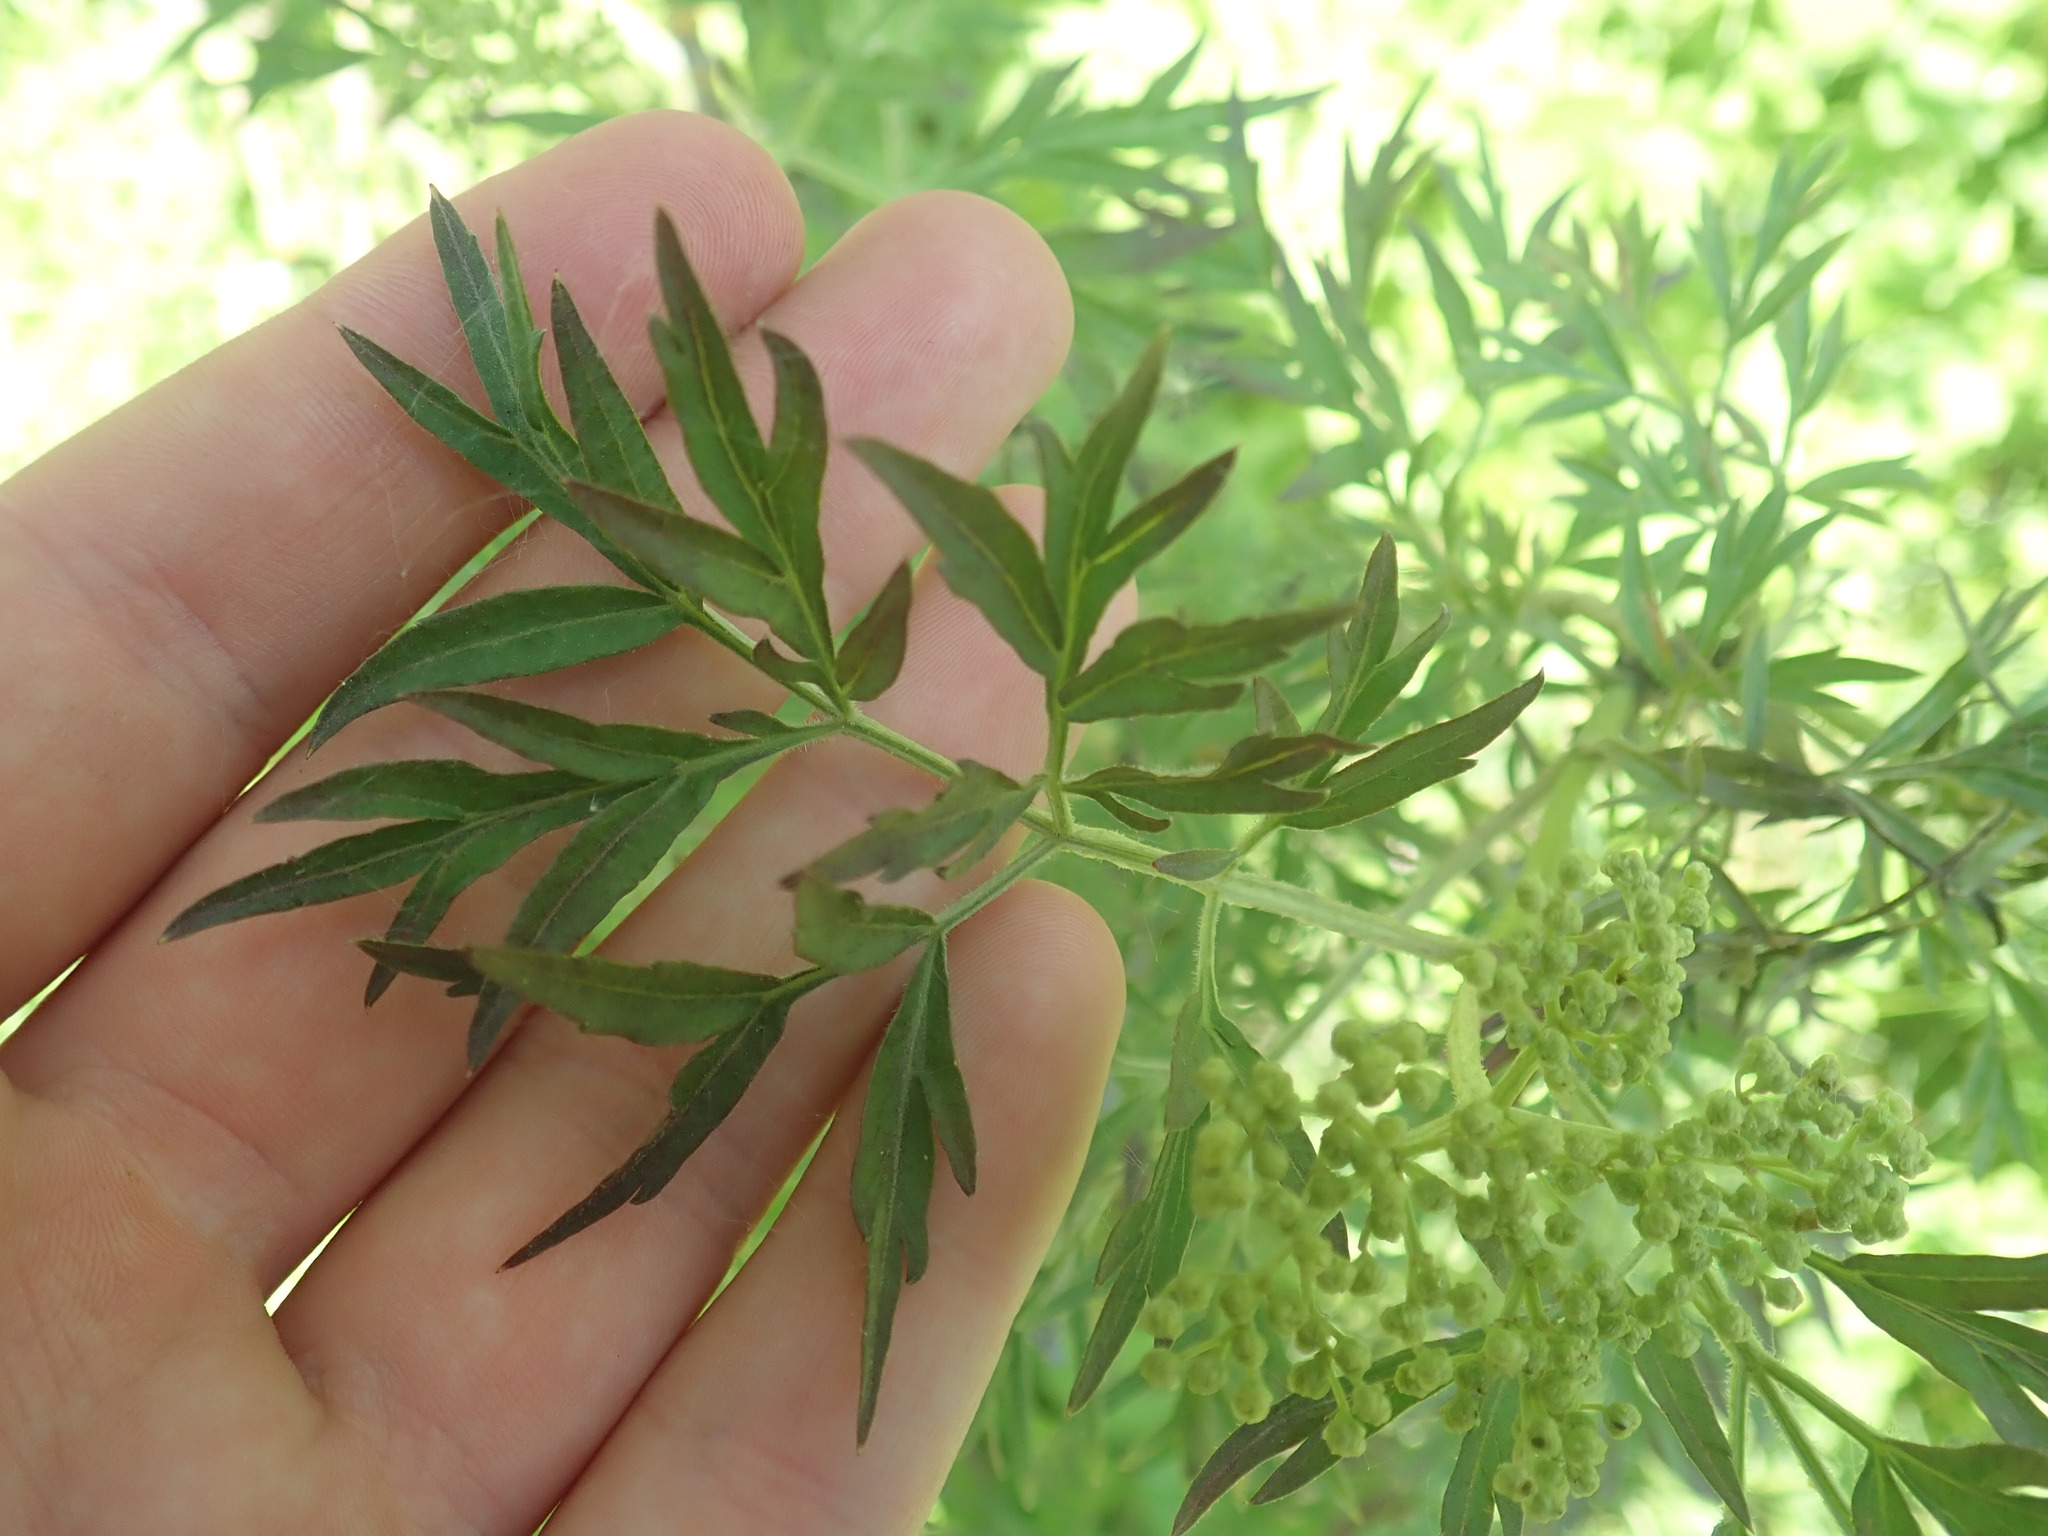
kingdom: Plantae
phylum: Tracheophyta
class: Magnoliopsida
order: Dipsacales
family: Viburnaceae
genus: Sambucus
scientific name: Sambucus nigra
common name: Elder
